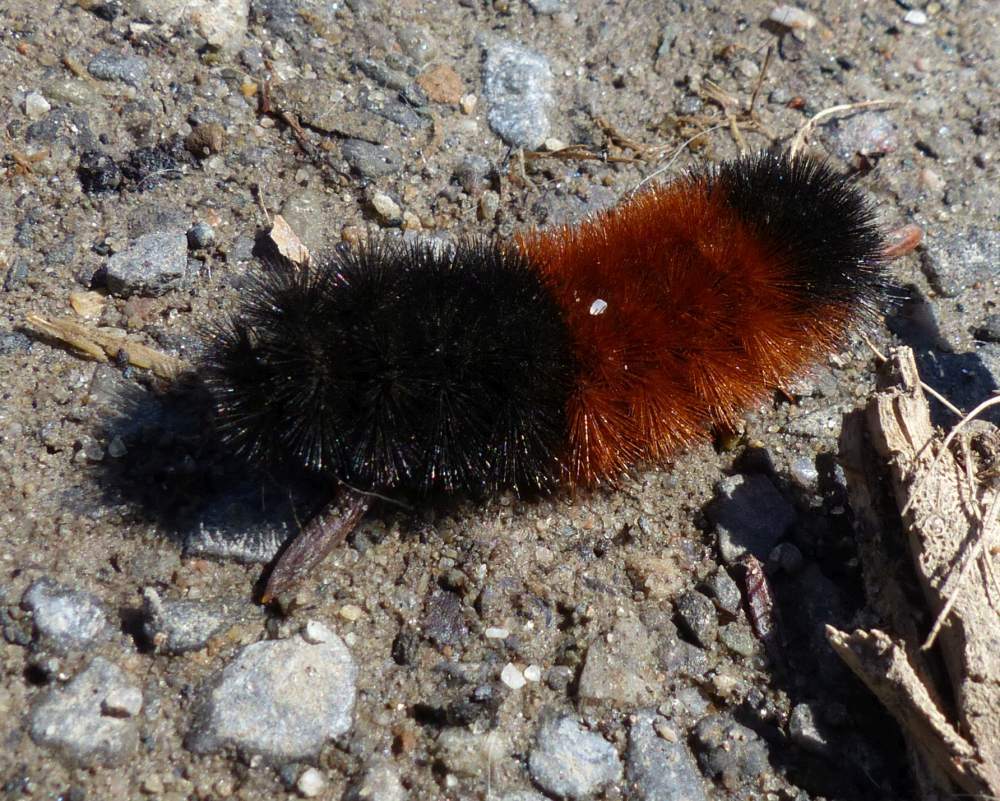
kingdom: Animalia
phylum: Arthropoda
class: Insecta
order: Lepidoptera
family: Erebidae
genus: Pyrrharctia
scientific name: Pyrrharctia isabella
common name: Isabella tiger moth
